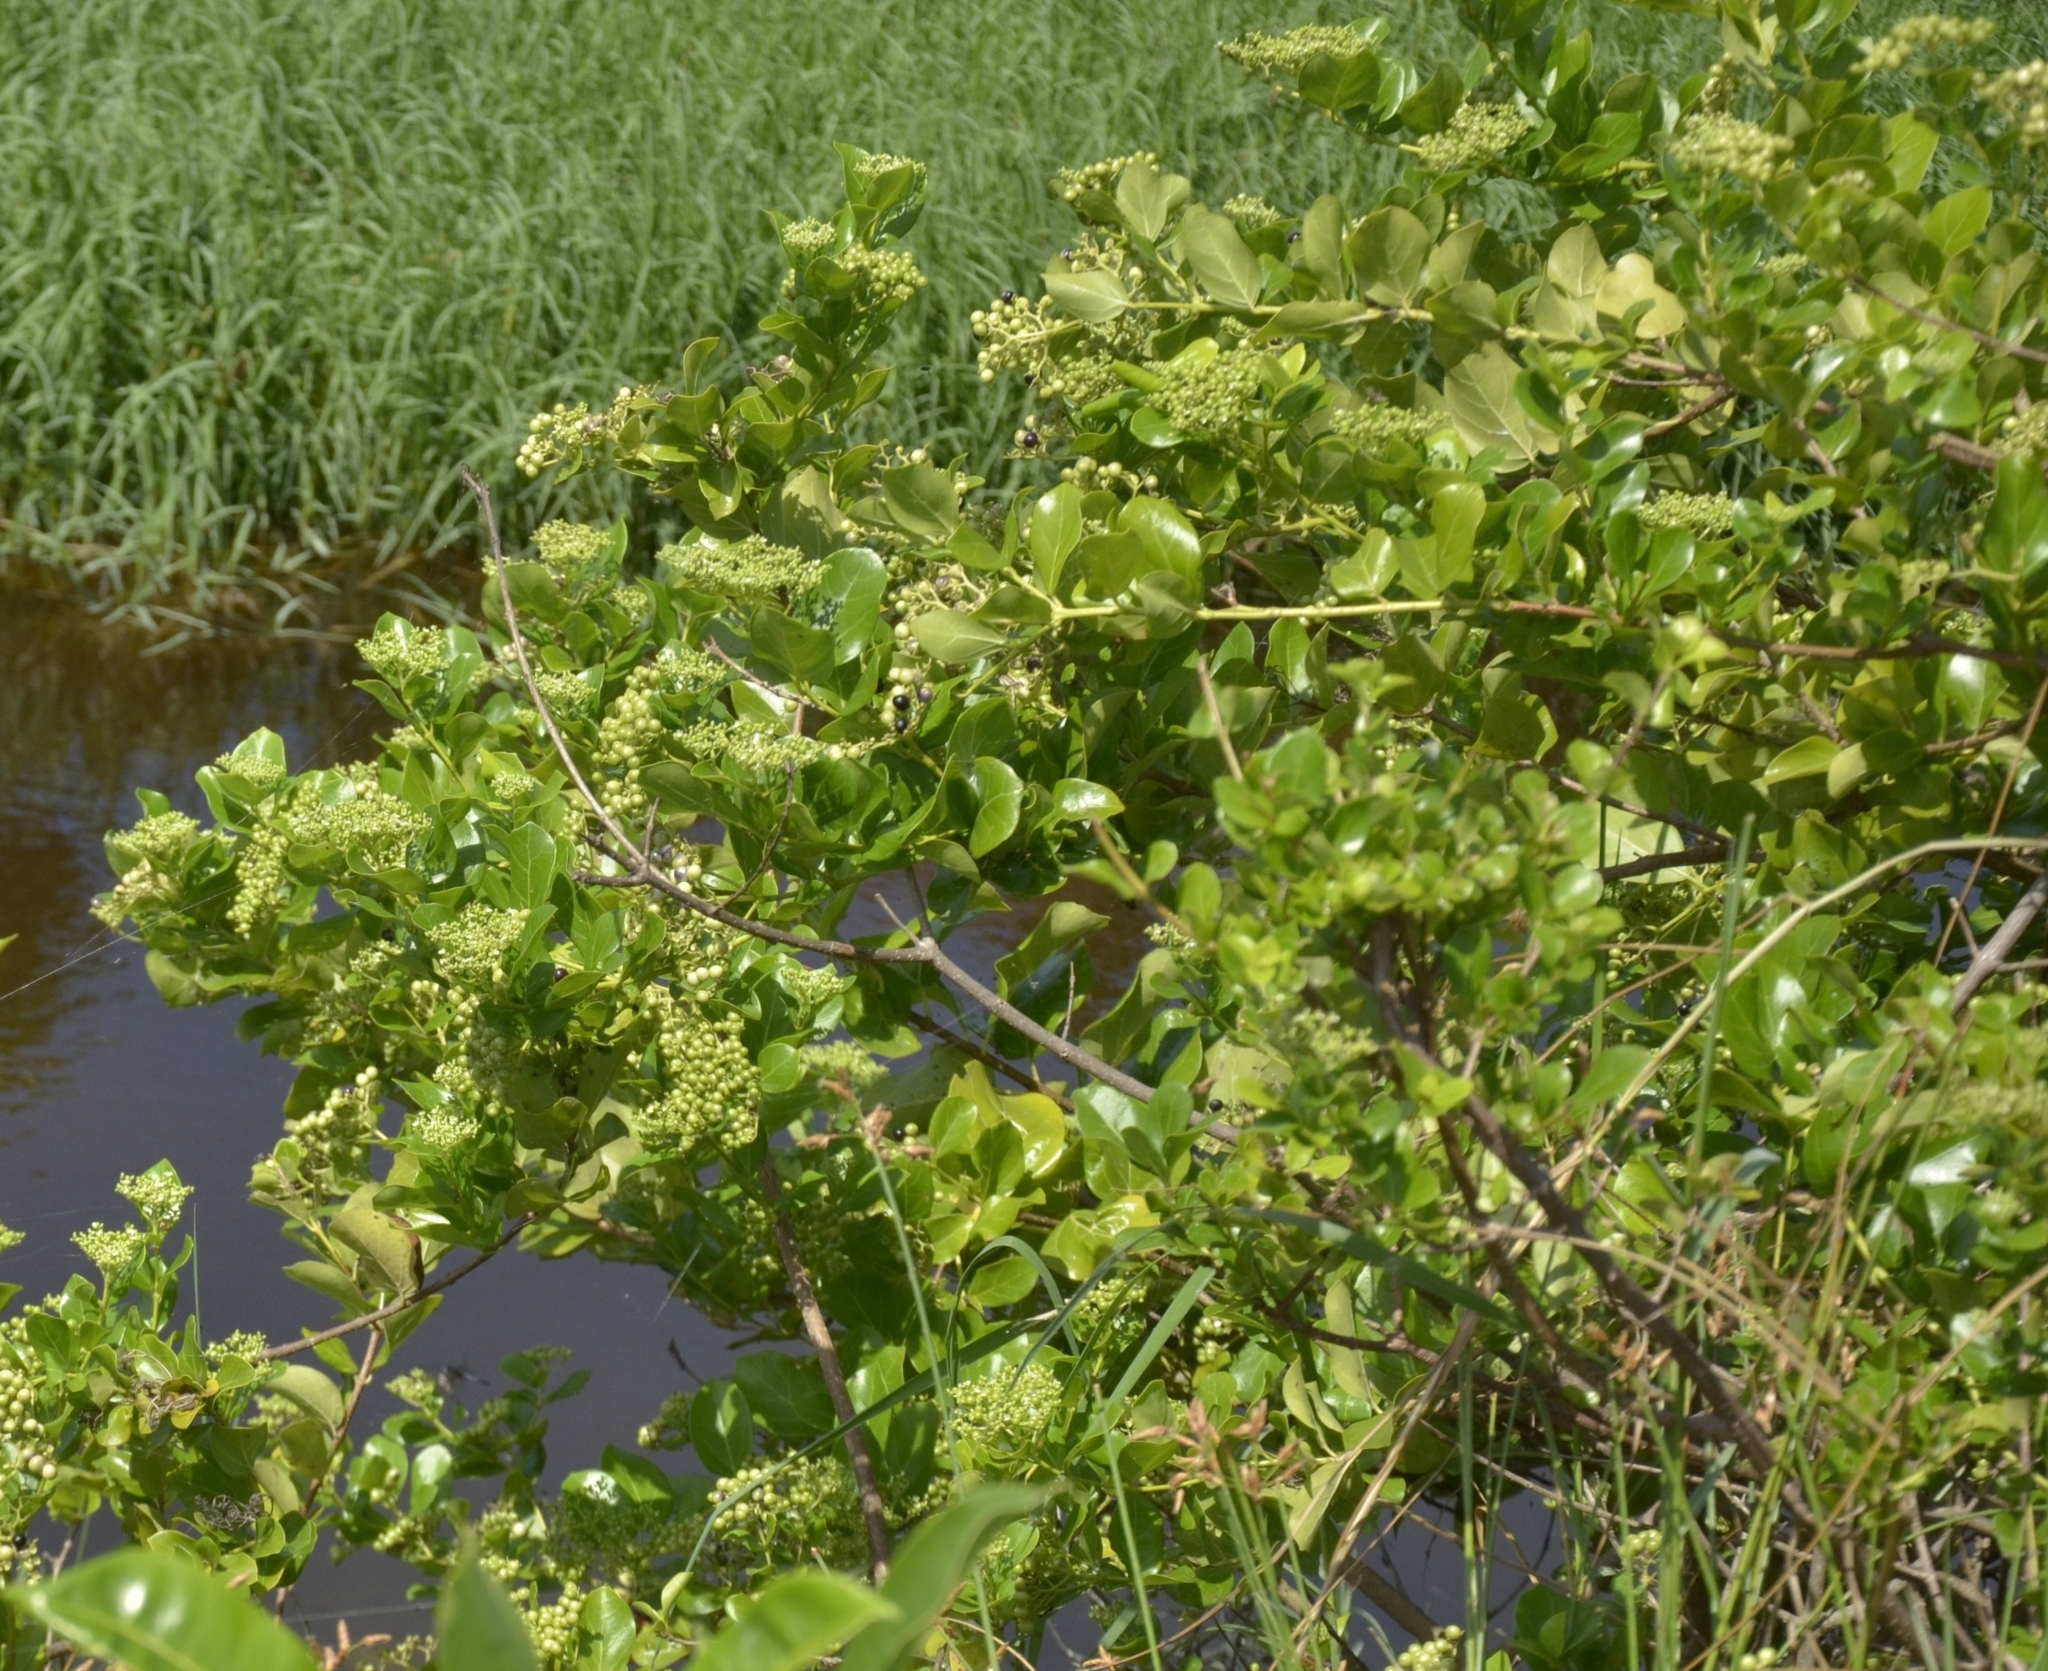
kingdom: Plantae
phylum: Tracheophyta
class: Magnoliopsida
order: Lamiales
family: Lamiaceae
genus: Premna
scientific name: Premna serratifolia
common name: Bastard guelder
